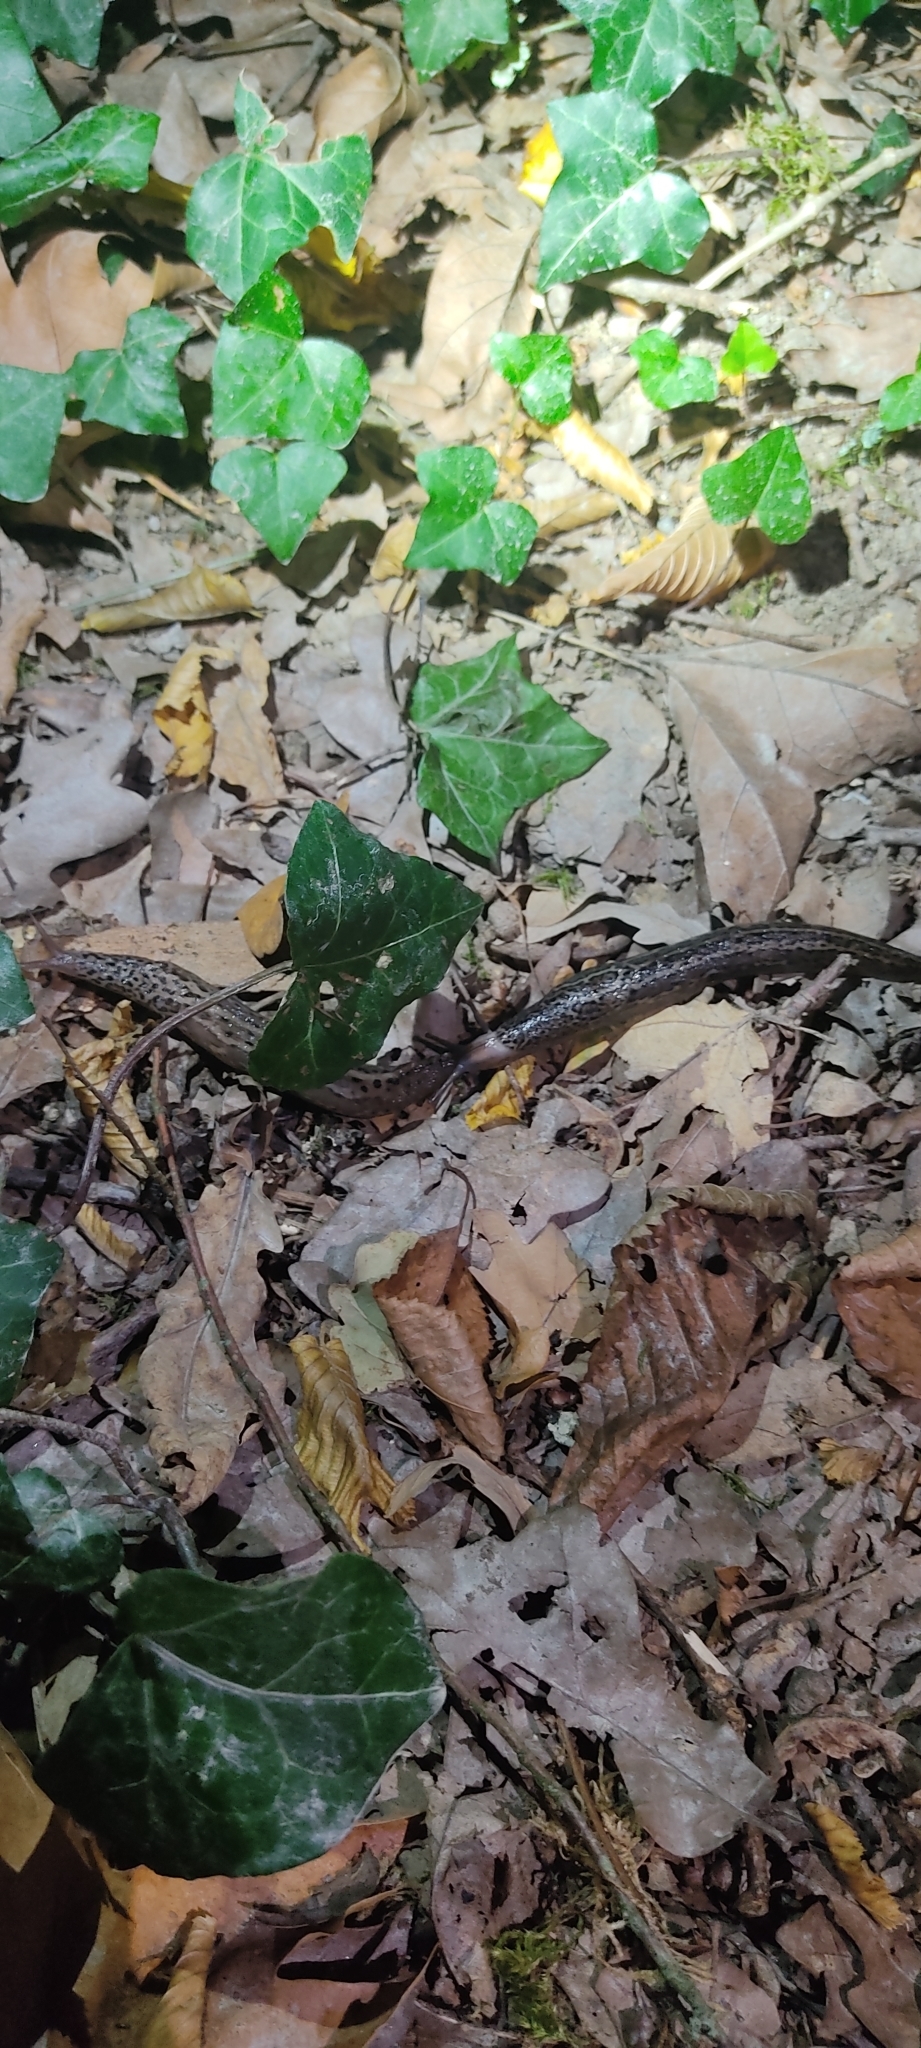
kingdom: Animalia
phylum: Mollusca
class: Gastropoda
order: Stylommatophora
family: Limacidae
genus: Limax
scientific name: Limax maximus
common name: Great grey slug
